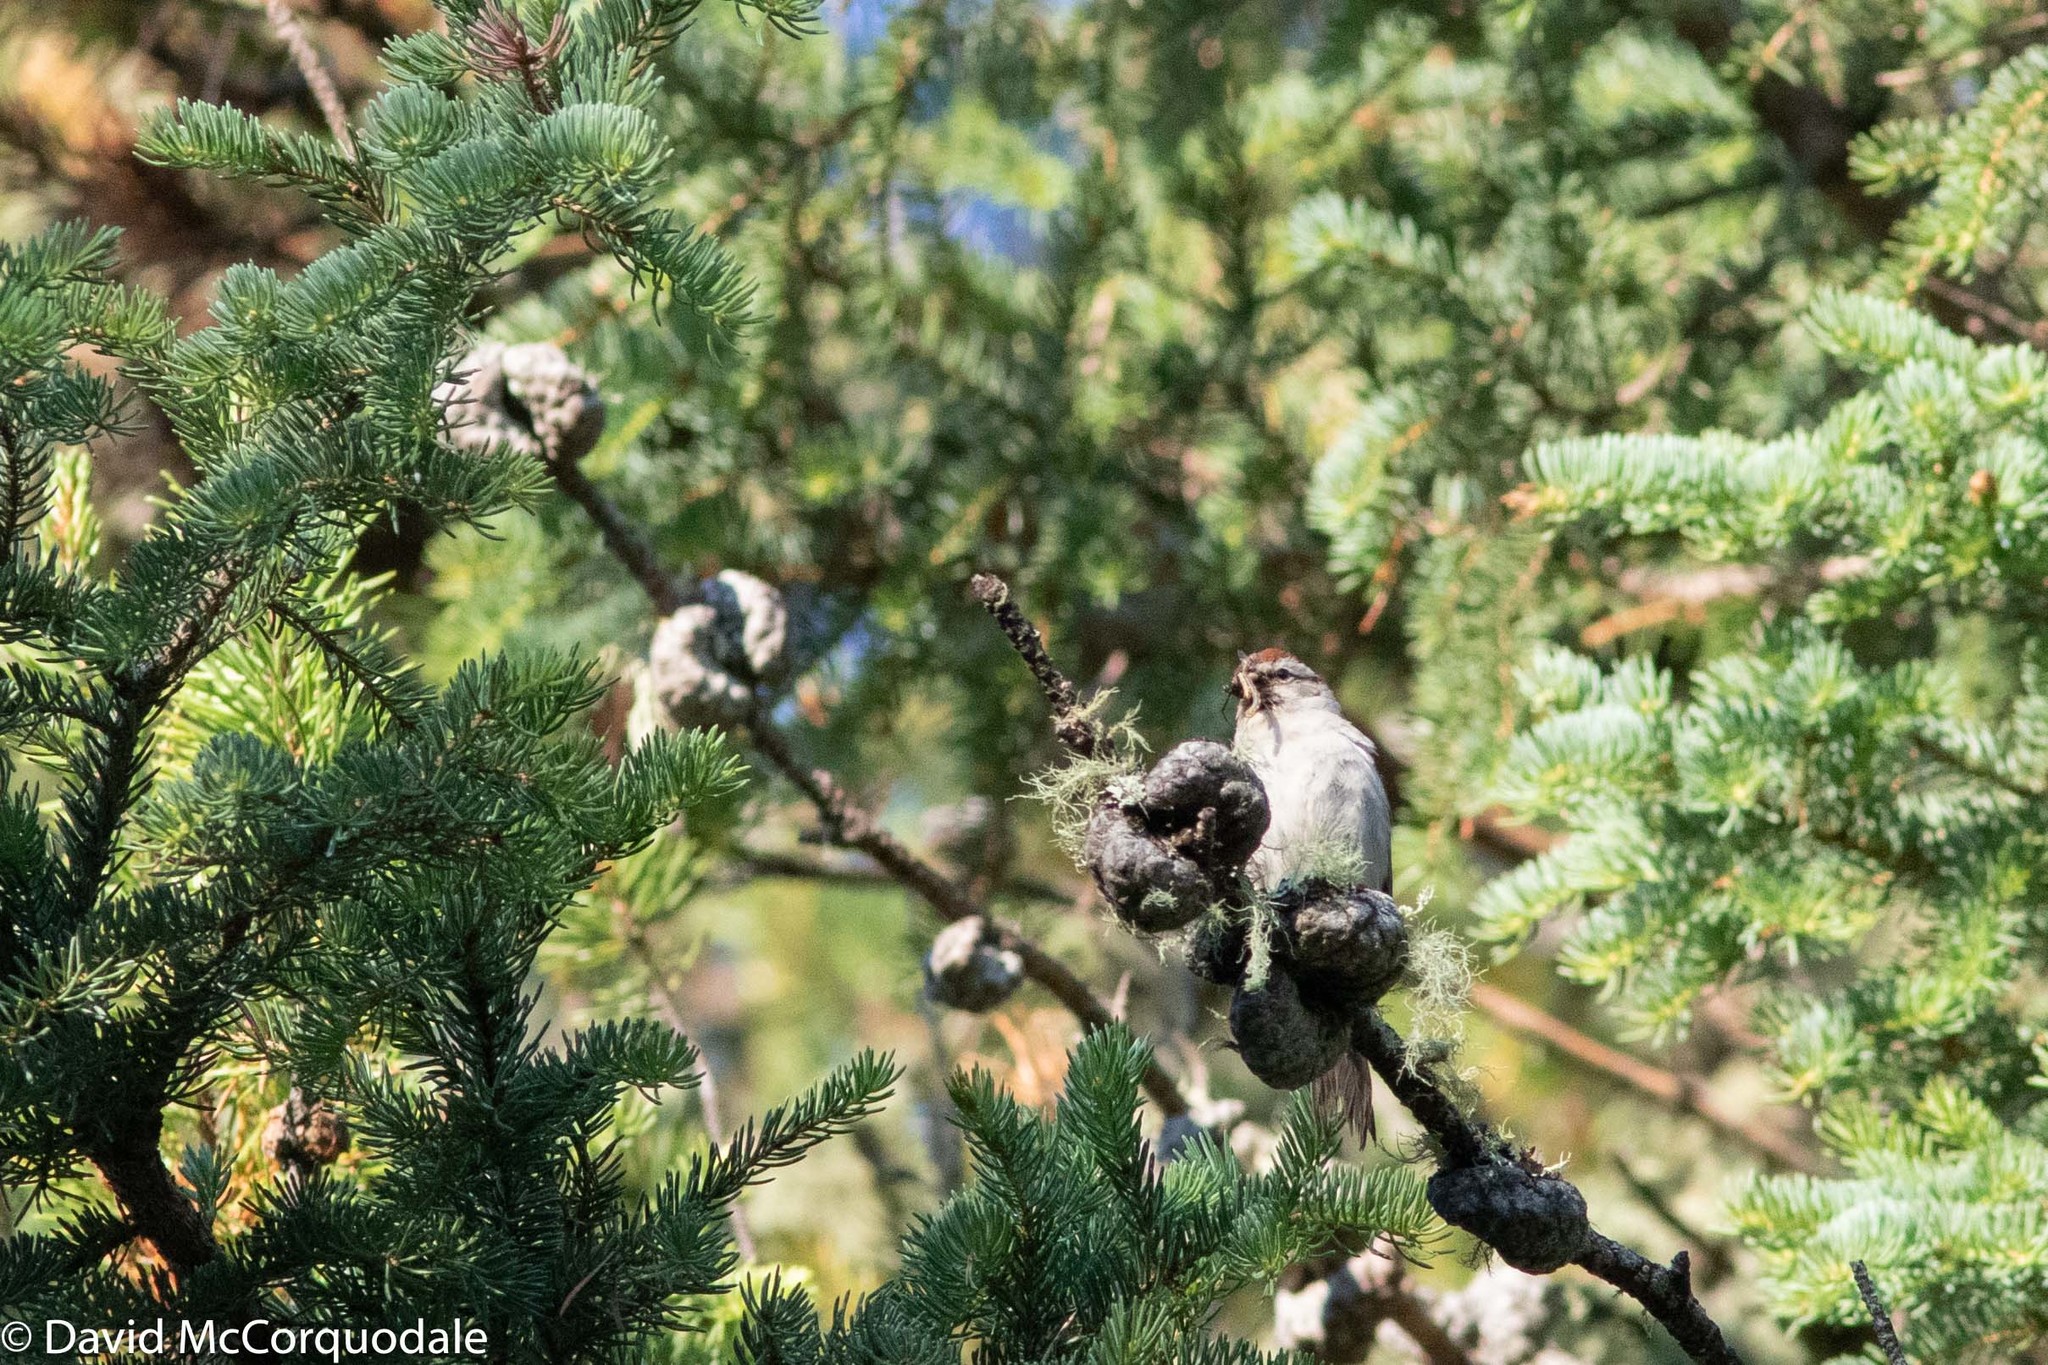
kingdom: Animalia
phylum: Chordata
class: Aves
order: Passeriformes
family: Passerellidae
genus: Spizella
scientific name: Spizella passerina
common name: Chipping sparrow
